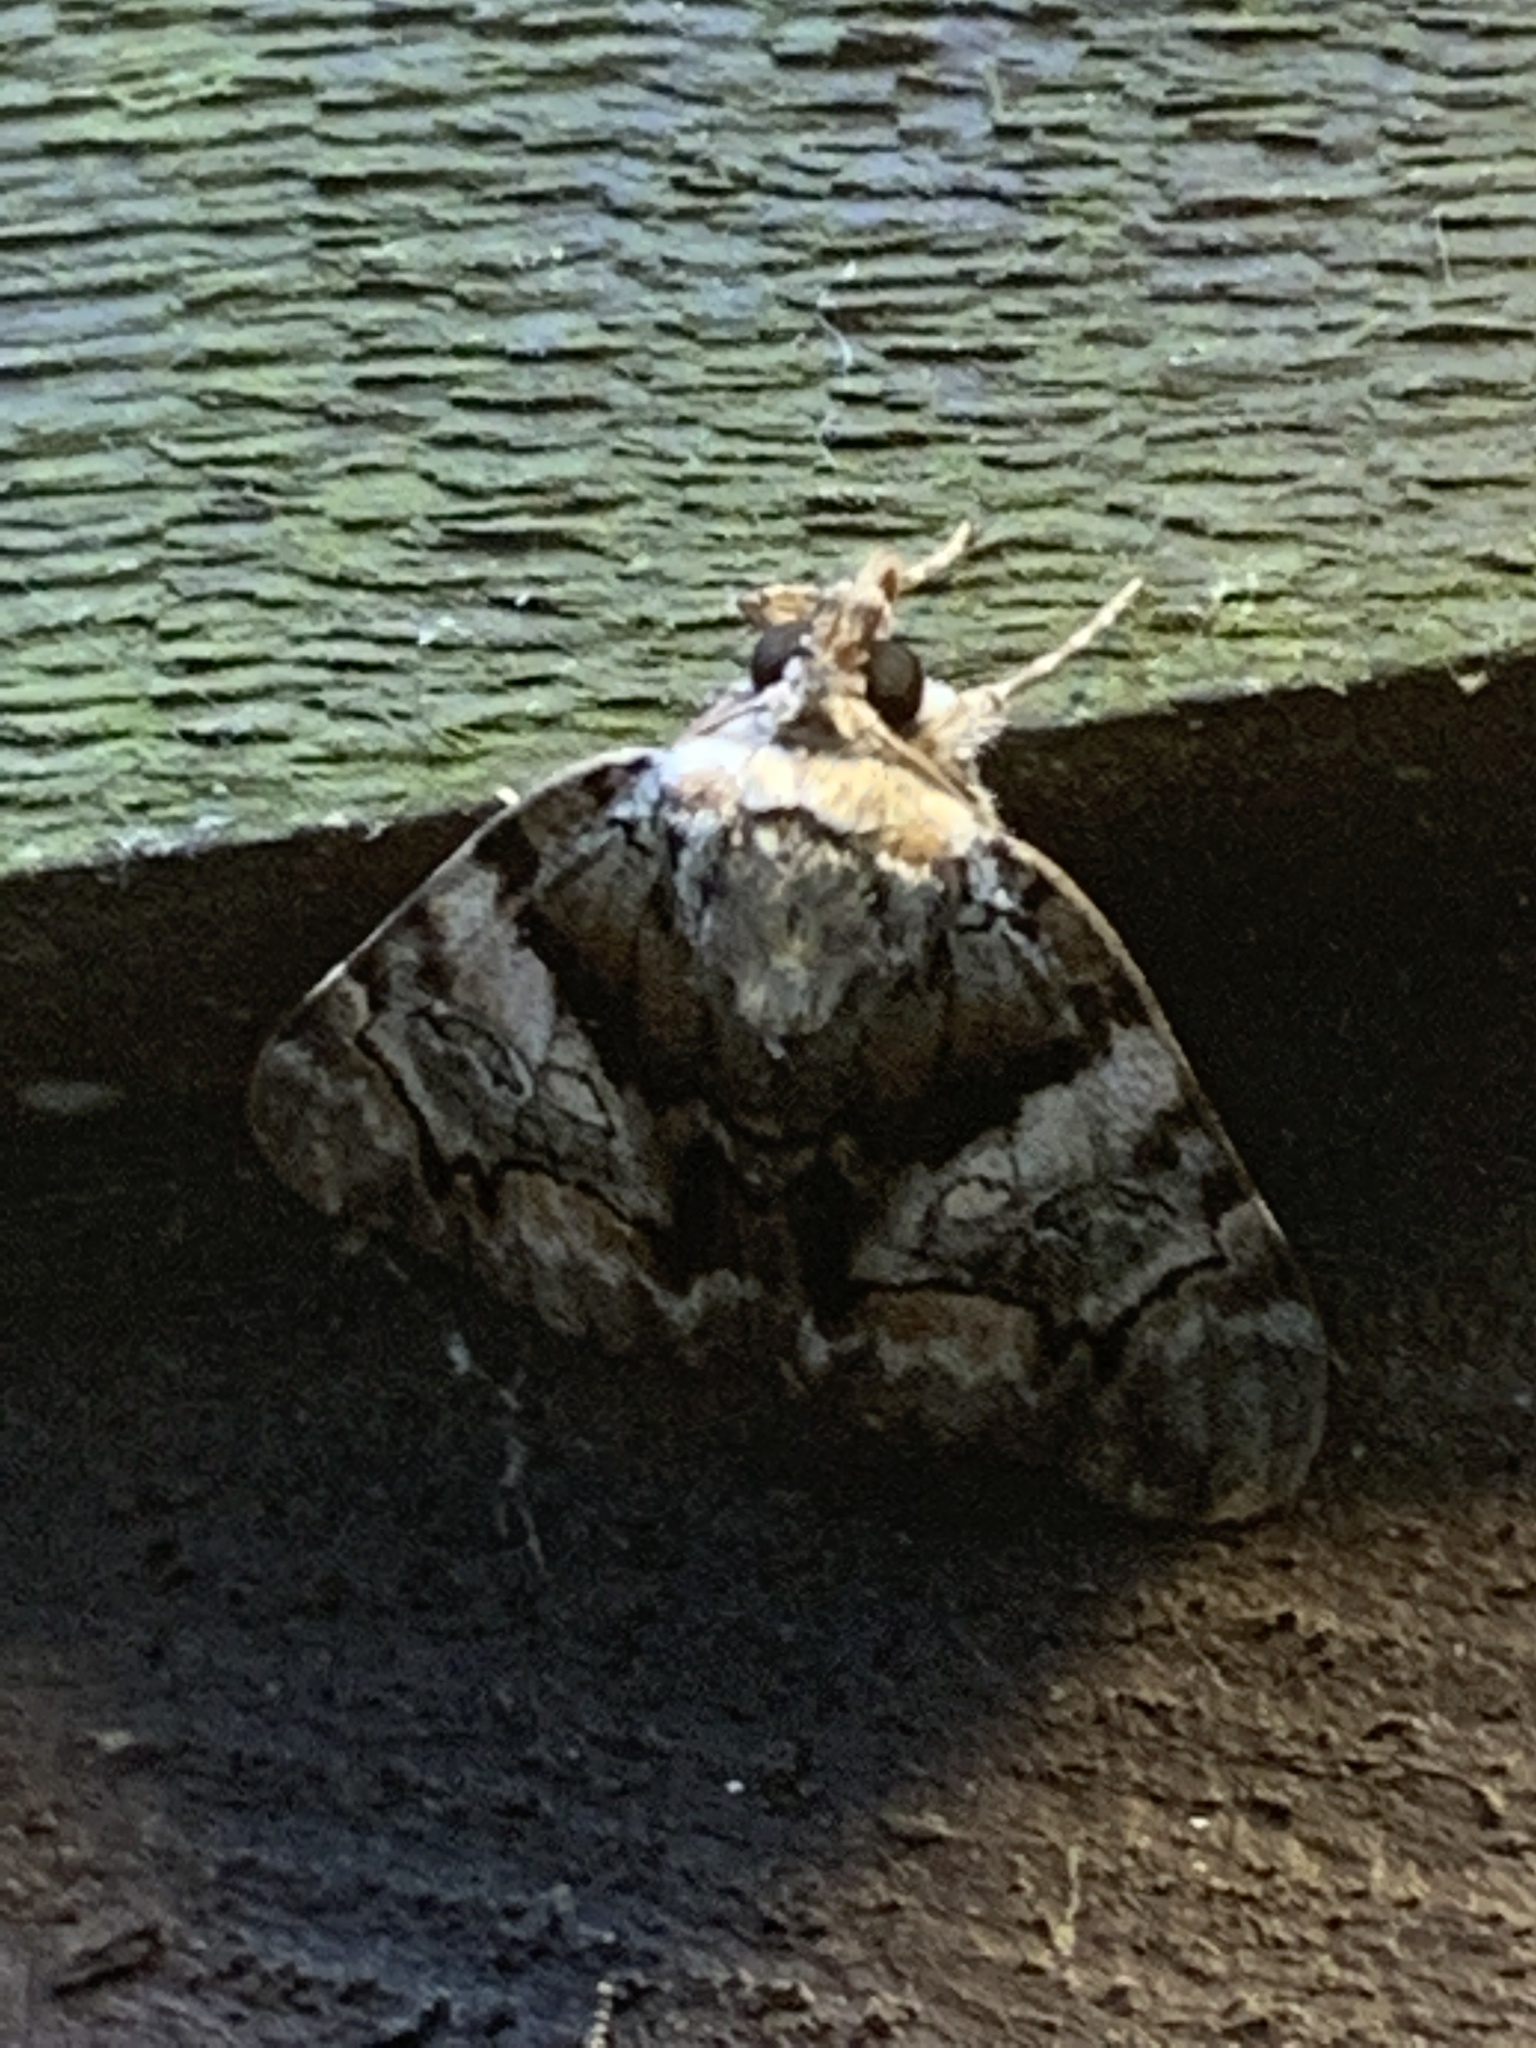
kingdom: Animalia
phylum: Arthropoda
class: Insecta
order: Lepidoptera
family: Erebidae
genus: Catocala
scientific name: Catocala blandula
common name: Charming underwing
